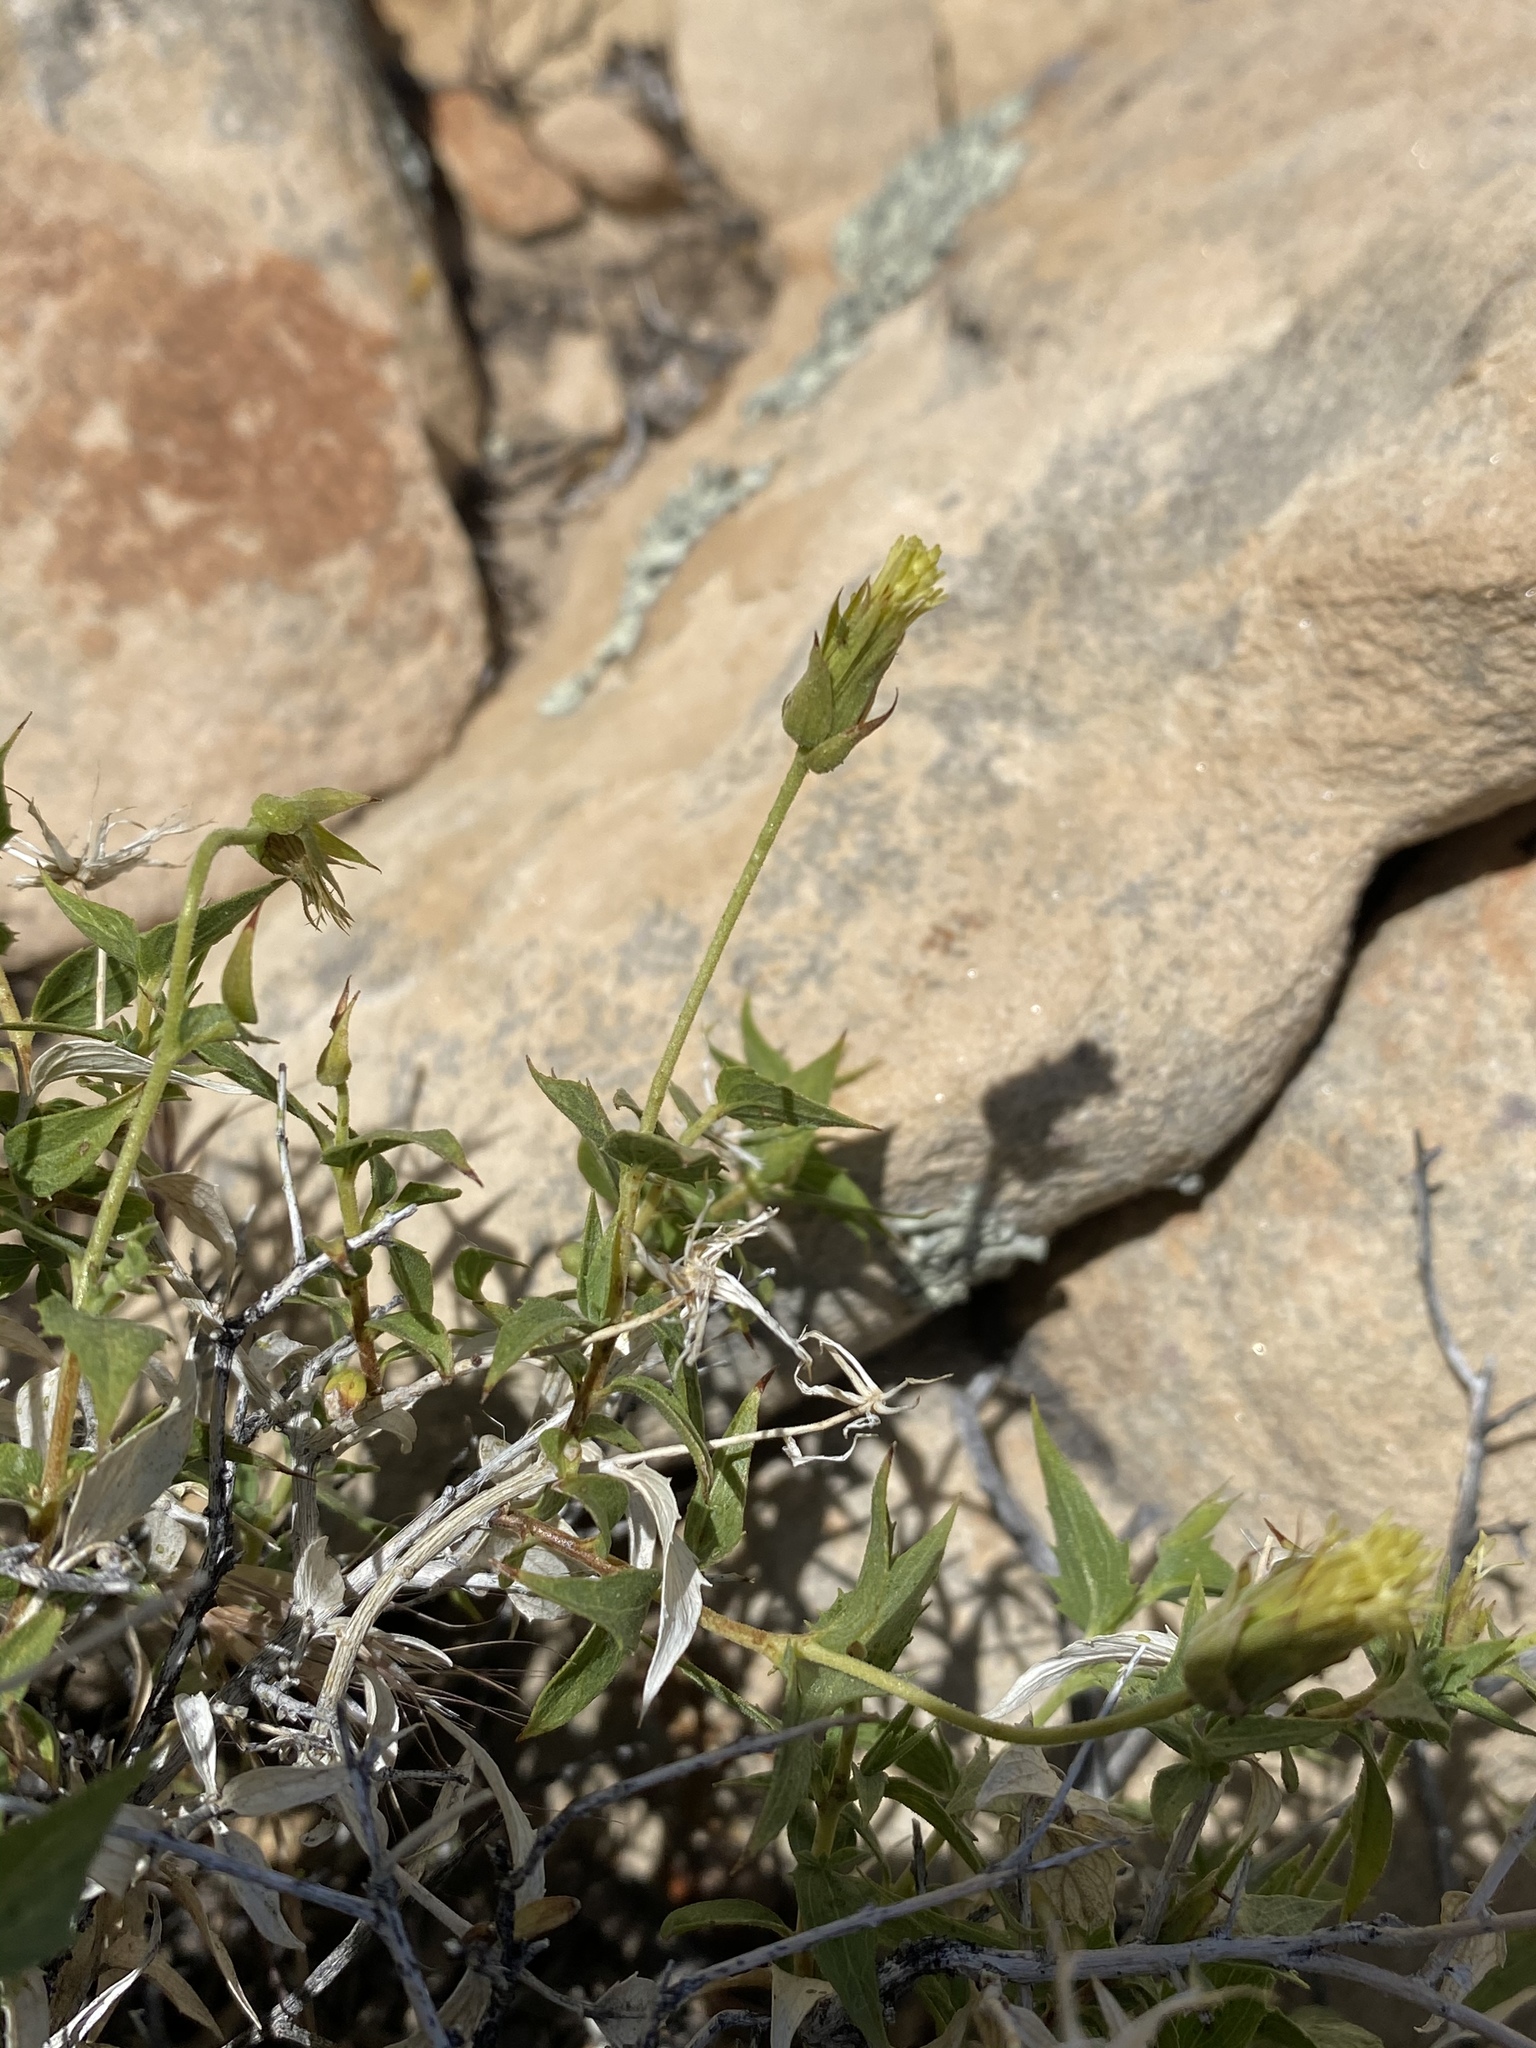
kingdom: Plantae
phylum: Tracheophyta
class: Magnoliopsida
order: Asterales
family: Asteraceae
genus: Brickellia
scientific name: Brickellia atractyloides
